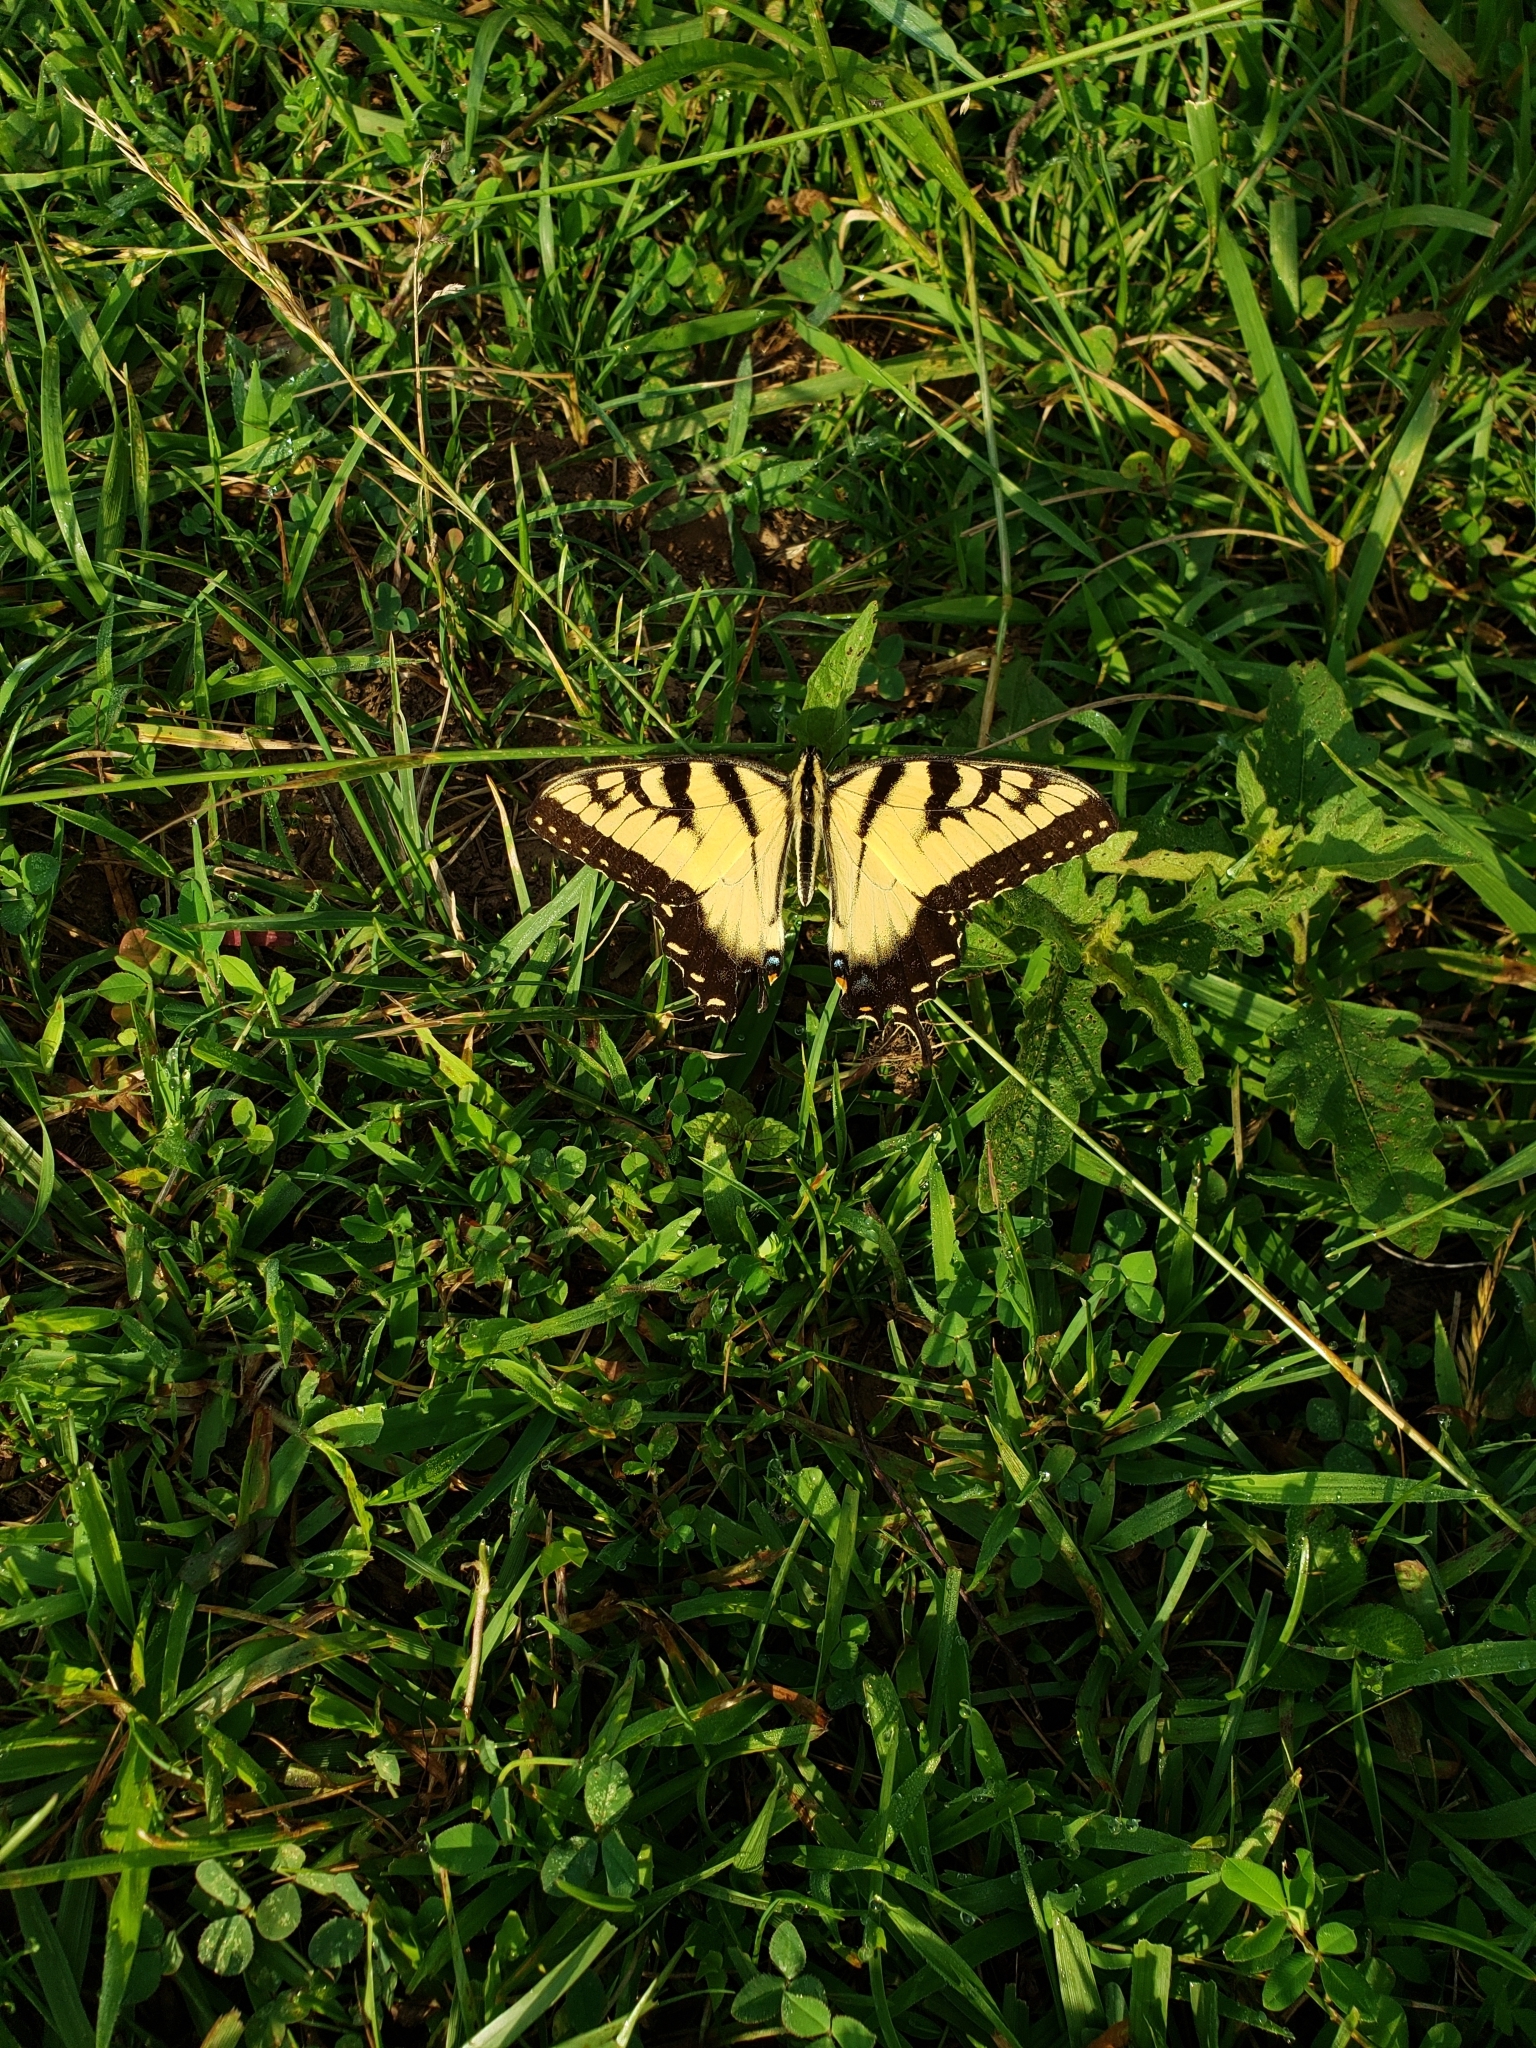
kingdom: Animalia
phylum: Arthropoda
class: Insecta
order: Lepidoptera
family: Papilionidae
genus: Papilio
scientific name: Papilio glaucus
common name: Tiger swallowtail
